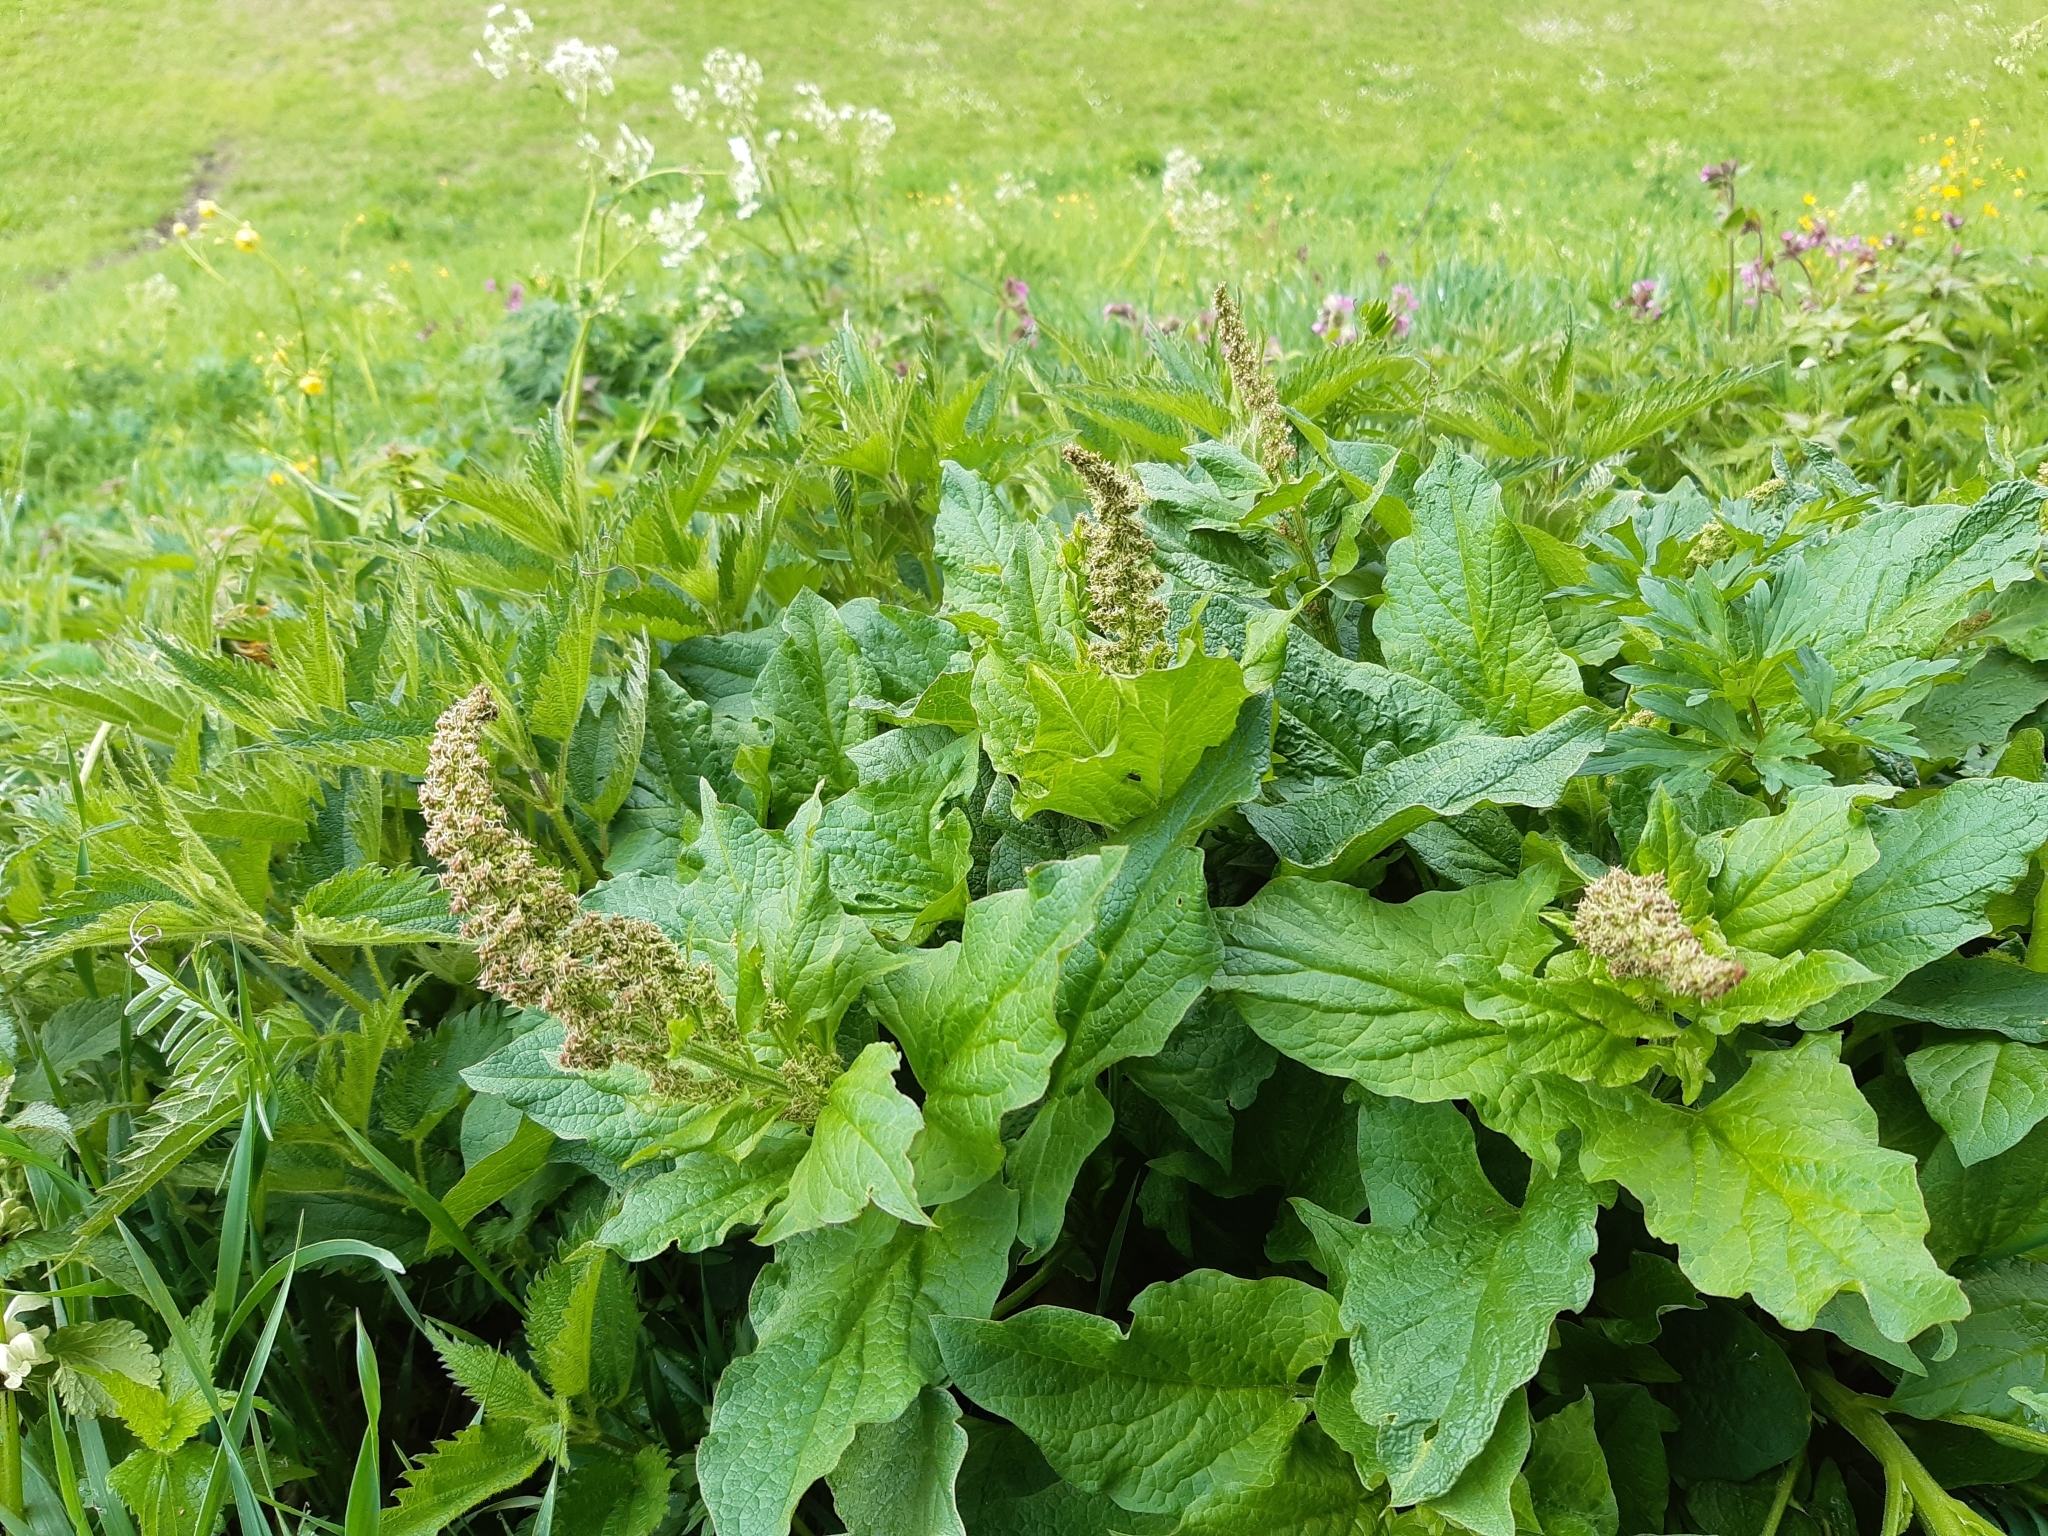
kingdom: Plantae
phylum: Tracheophyta
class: Magnoliopsida
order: Caryophyllales
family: Amaranthaceae
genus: Blitum
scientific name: Blitum bonus-henricus
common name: Good king henry
